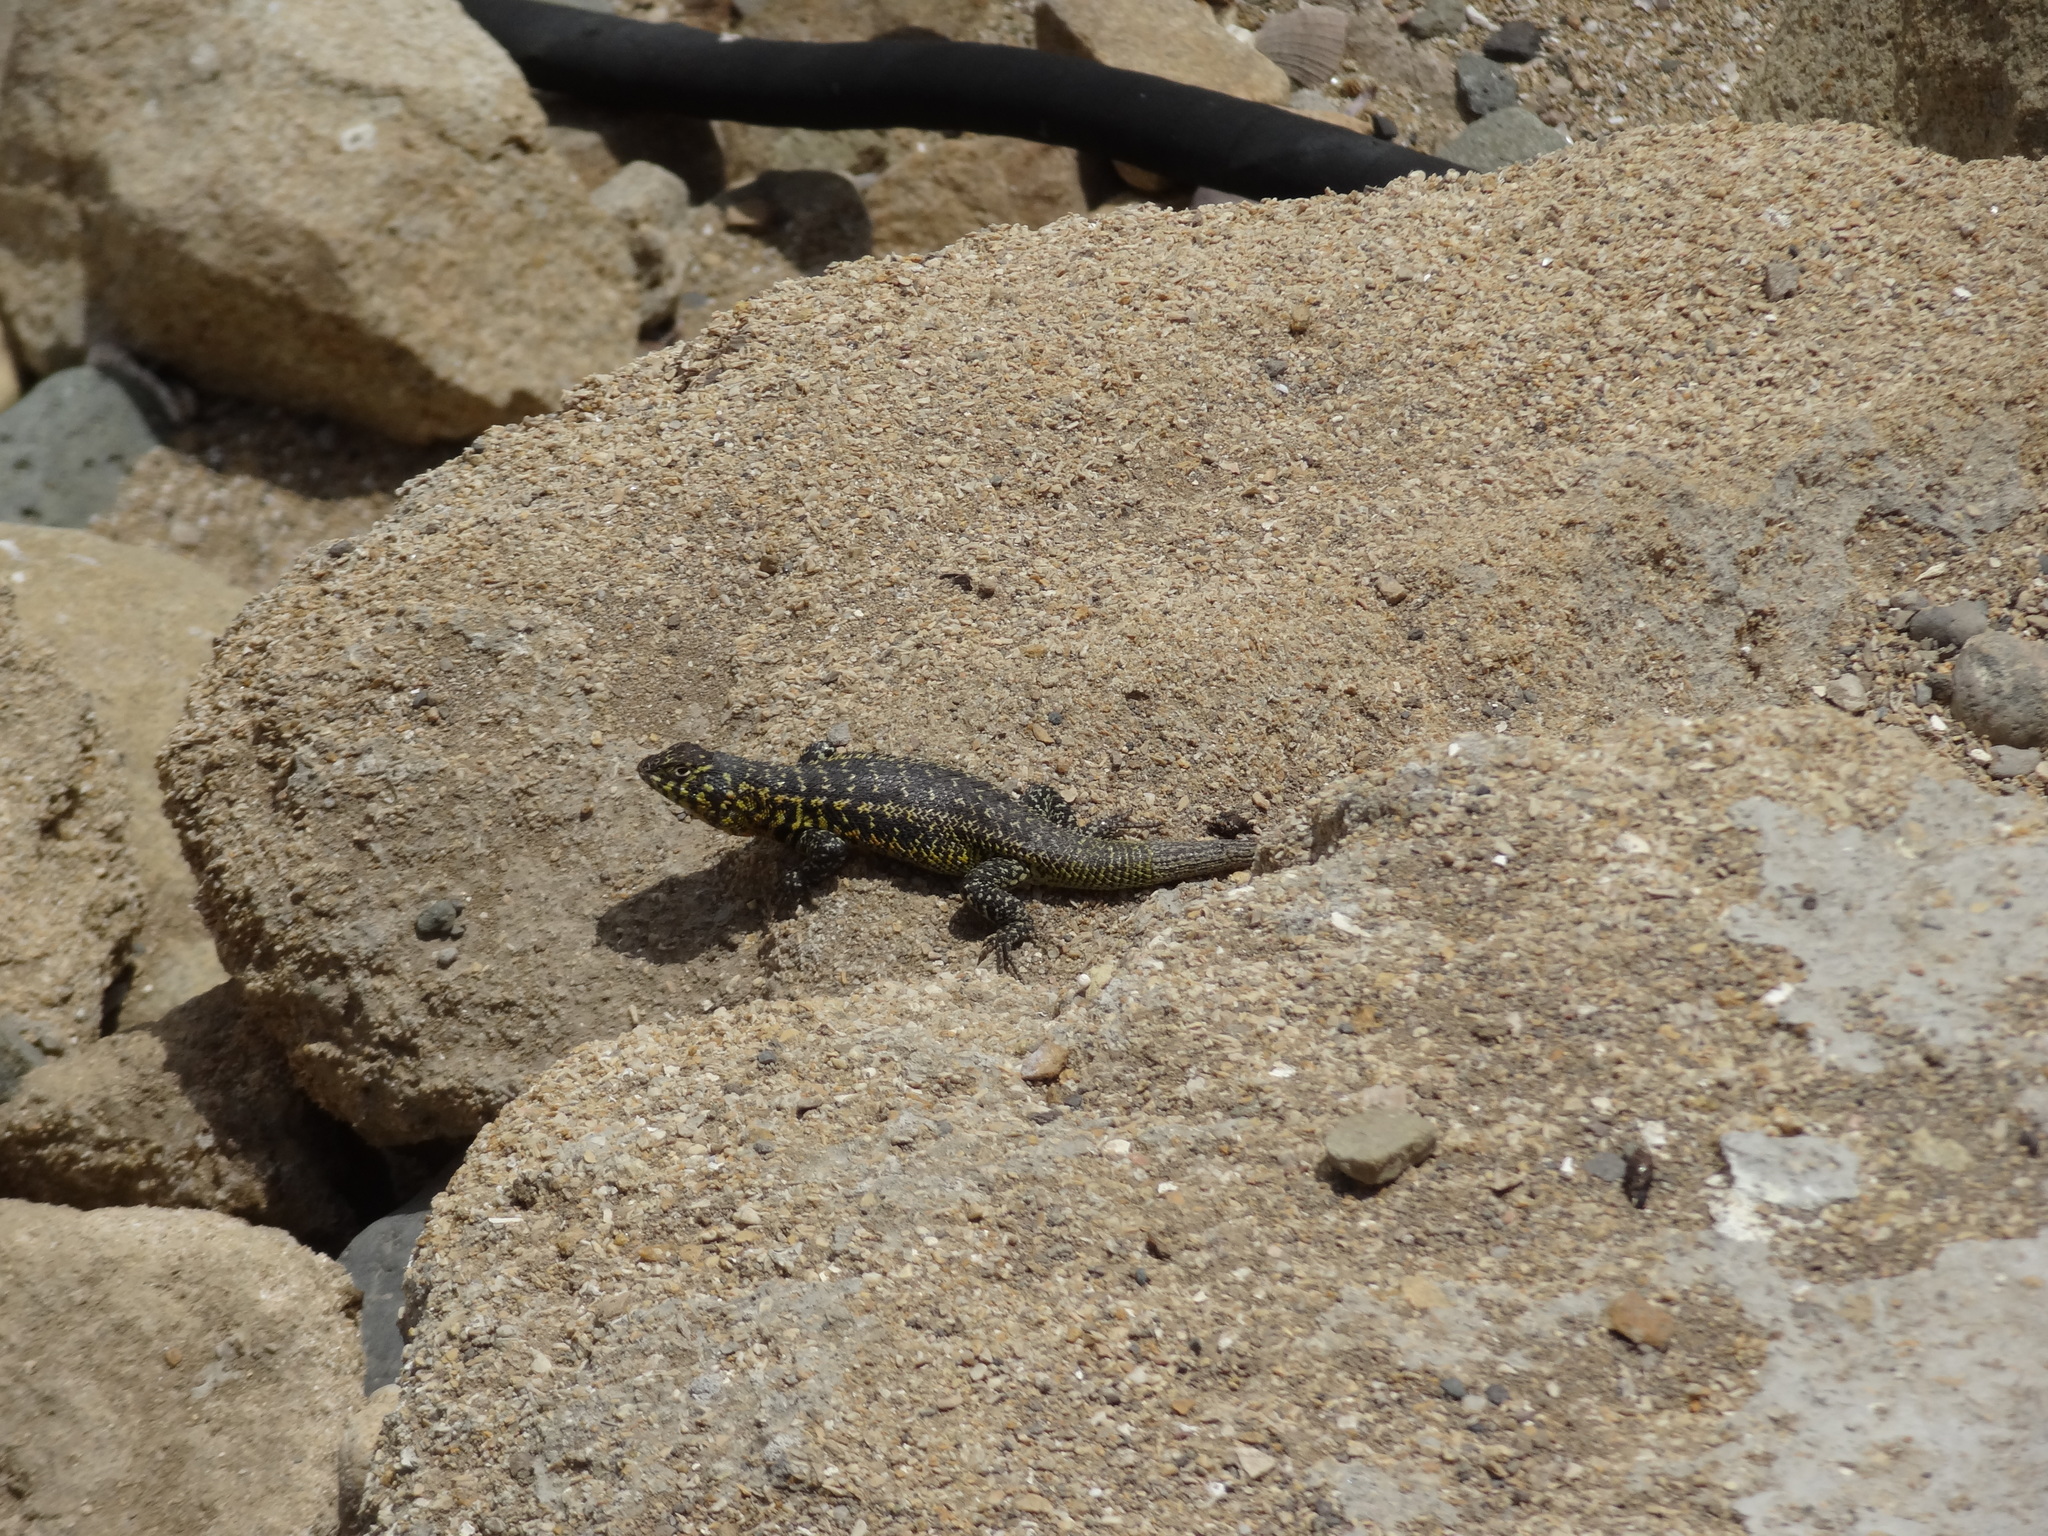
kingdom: Animalia
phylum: Chordata
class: Squamata
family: Liolaemidae
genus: Liolaemus
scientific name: Liolaemus zapallarensis
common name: Zapallaren tree iguana
